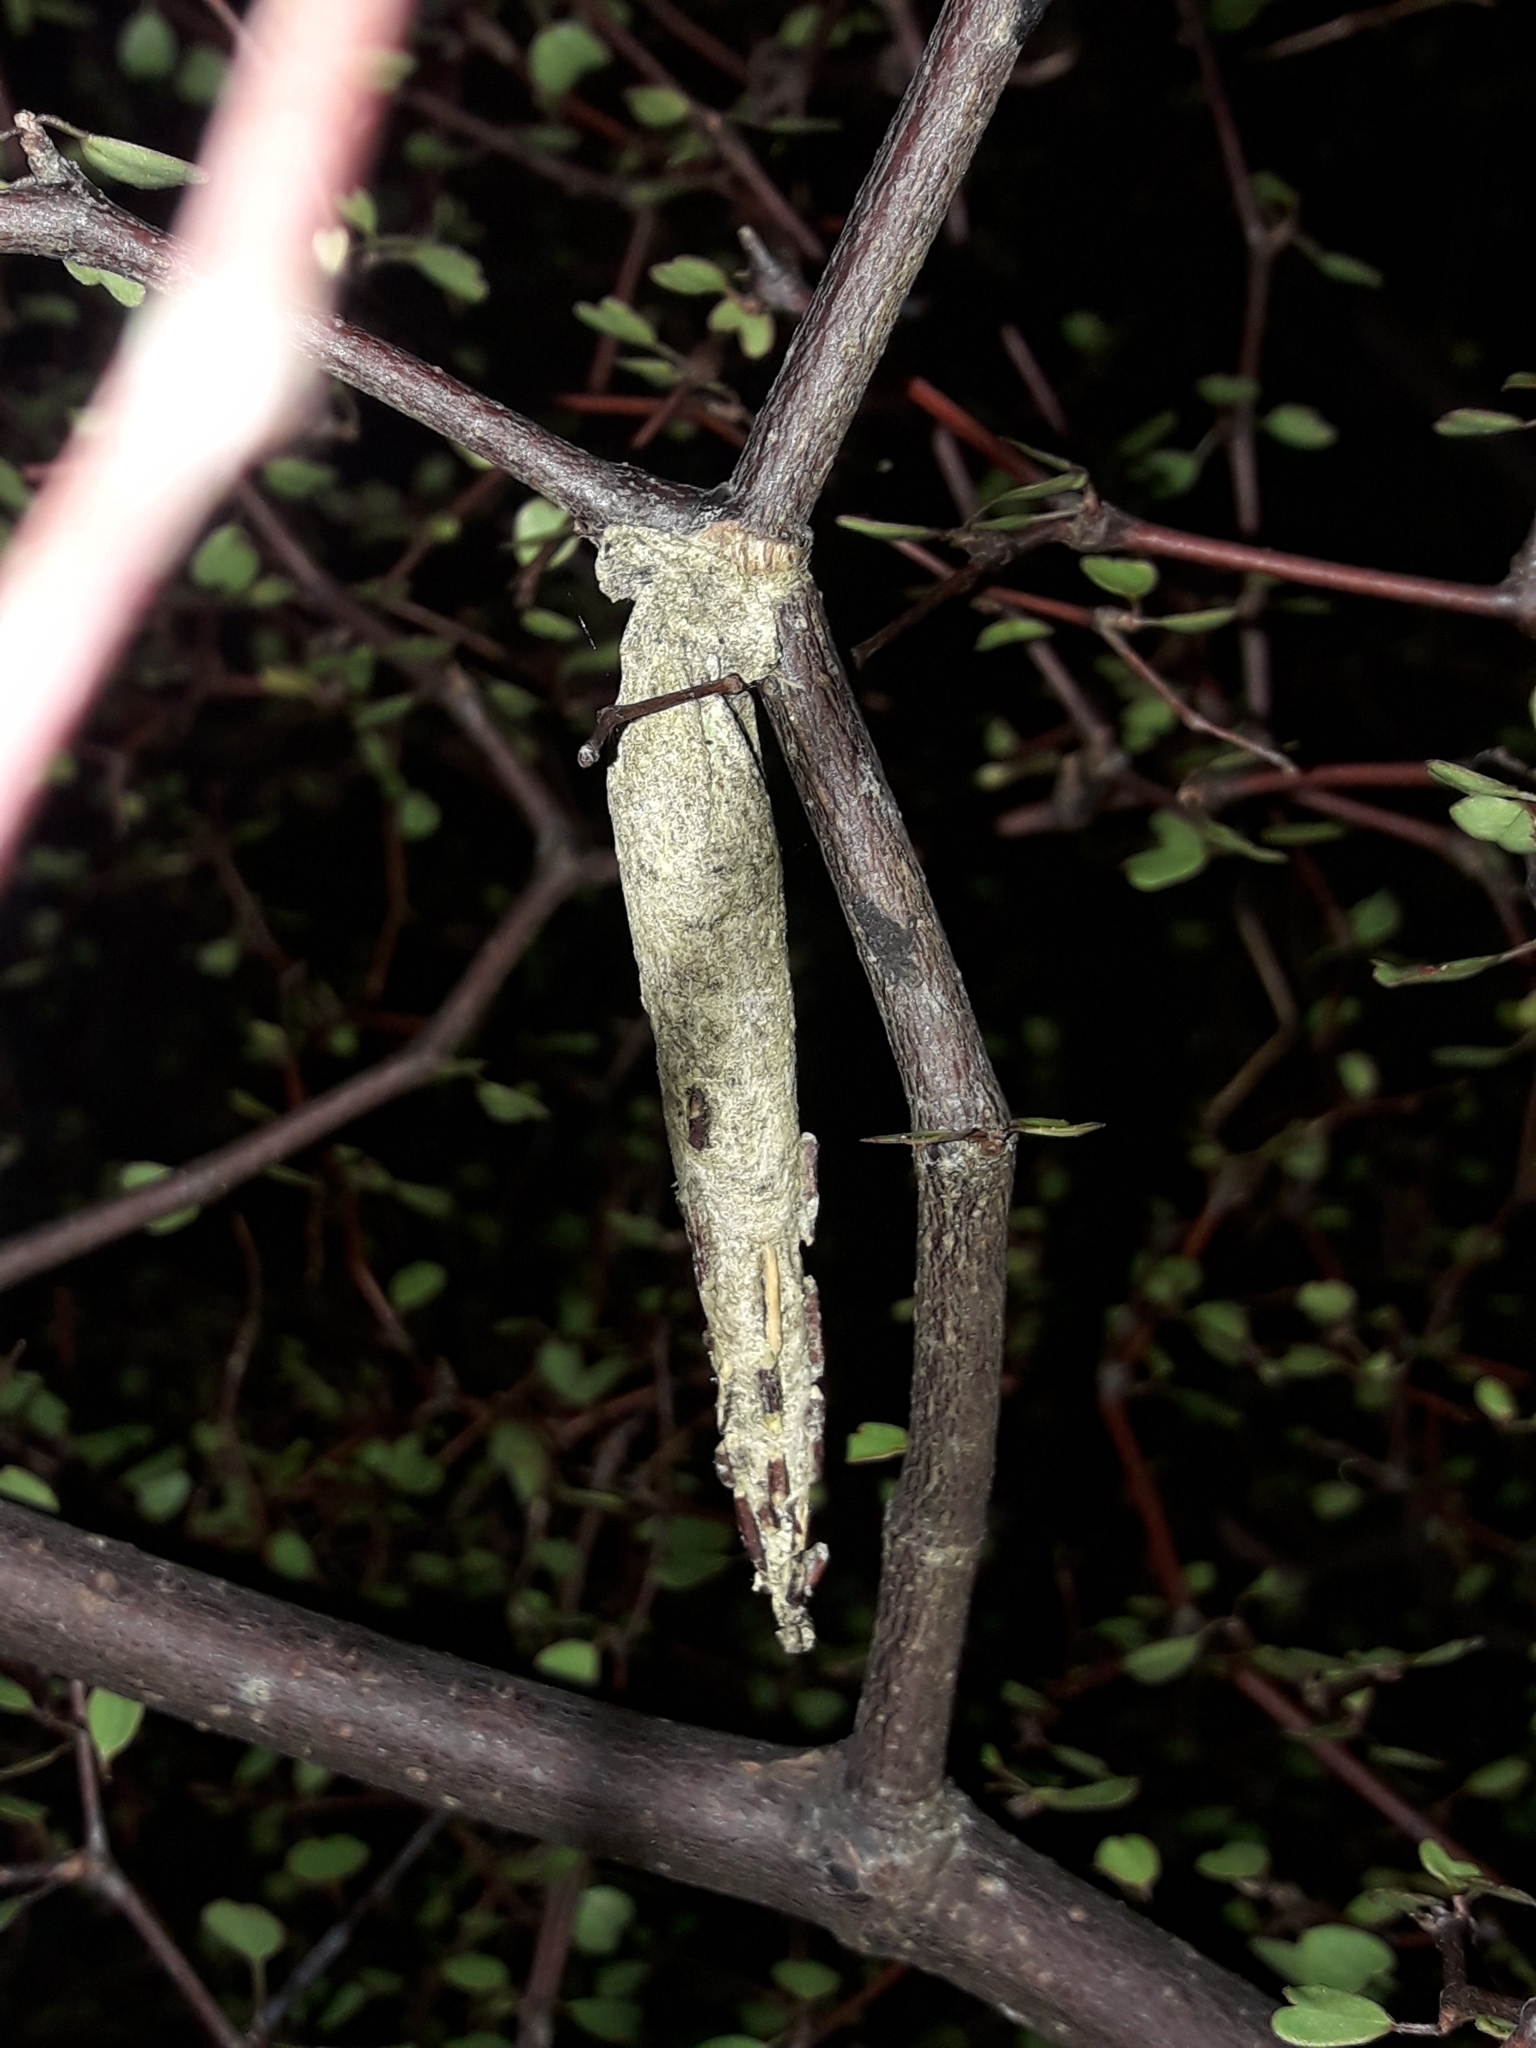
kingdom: Animalia
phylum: Arthropoda
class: Insecta
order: Lepidoptera
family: Psychidae
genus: Liothula
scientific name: Liothula omnivora
